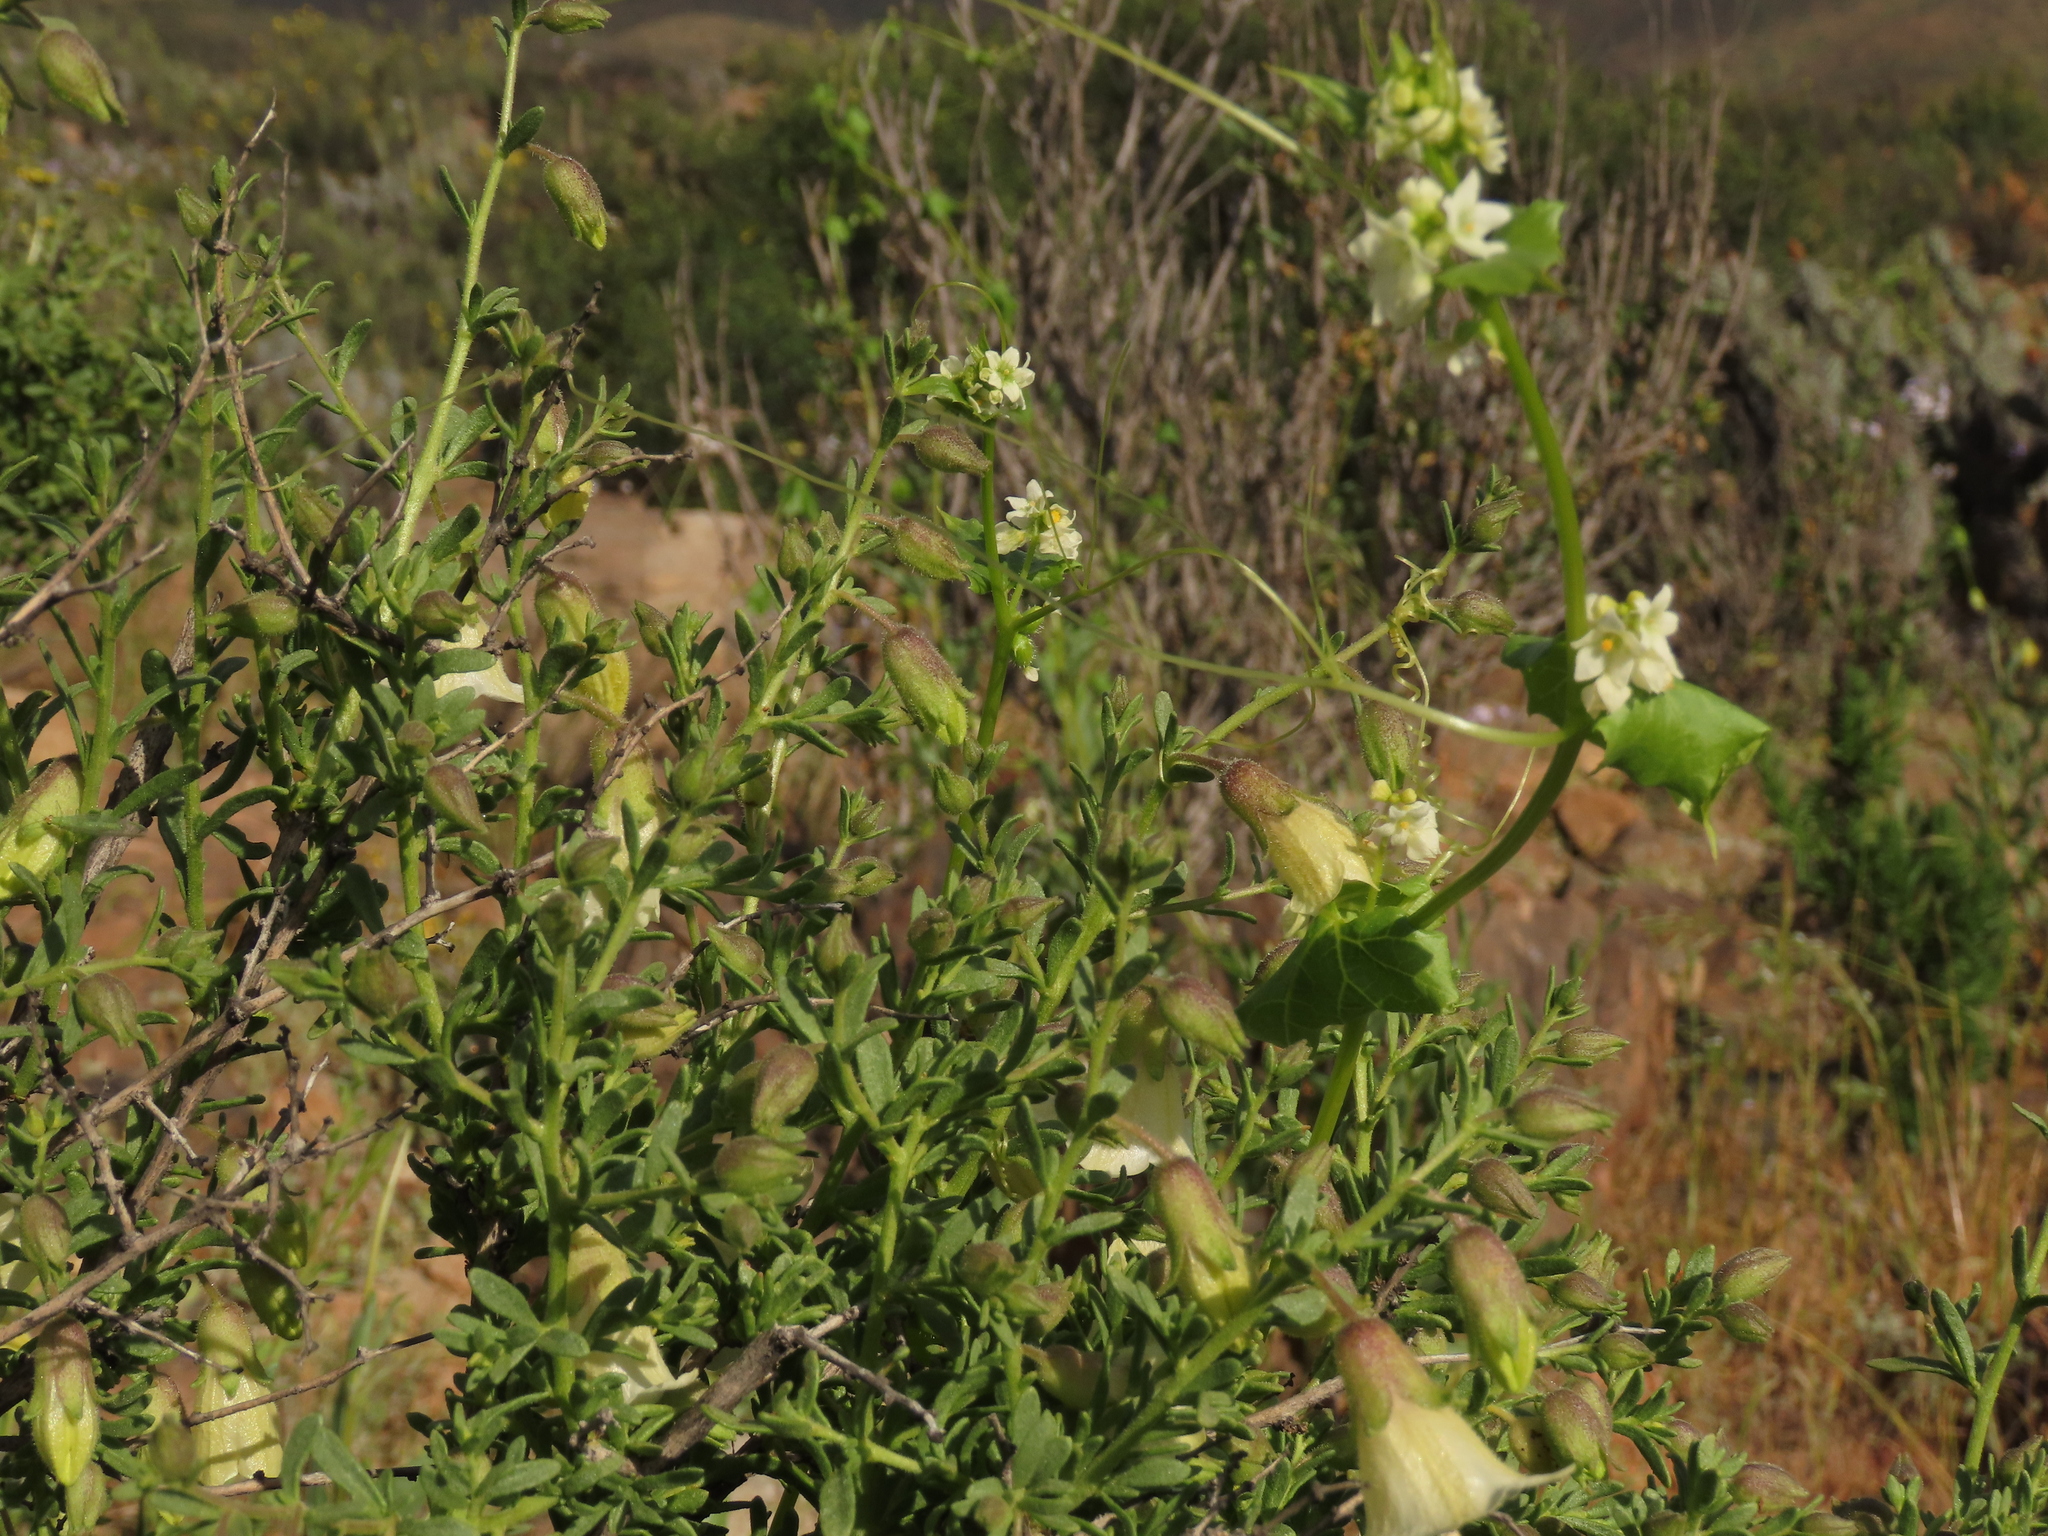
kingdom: Plantae
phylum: Tracheophyta
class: Magnoliopsida
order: Solanales
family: Solanaceae
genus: Lycium
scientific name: Lycium bridgesii
